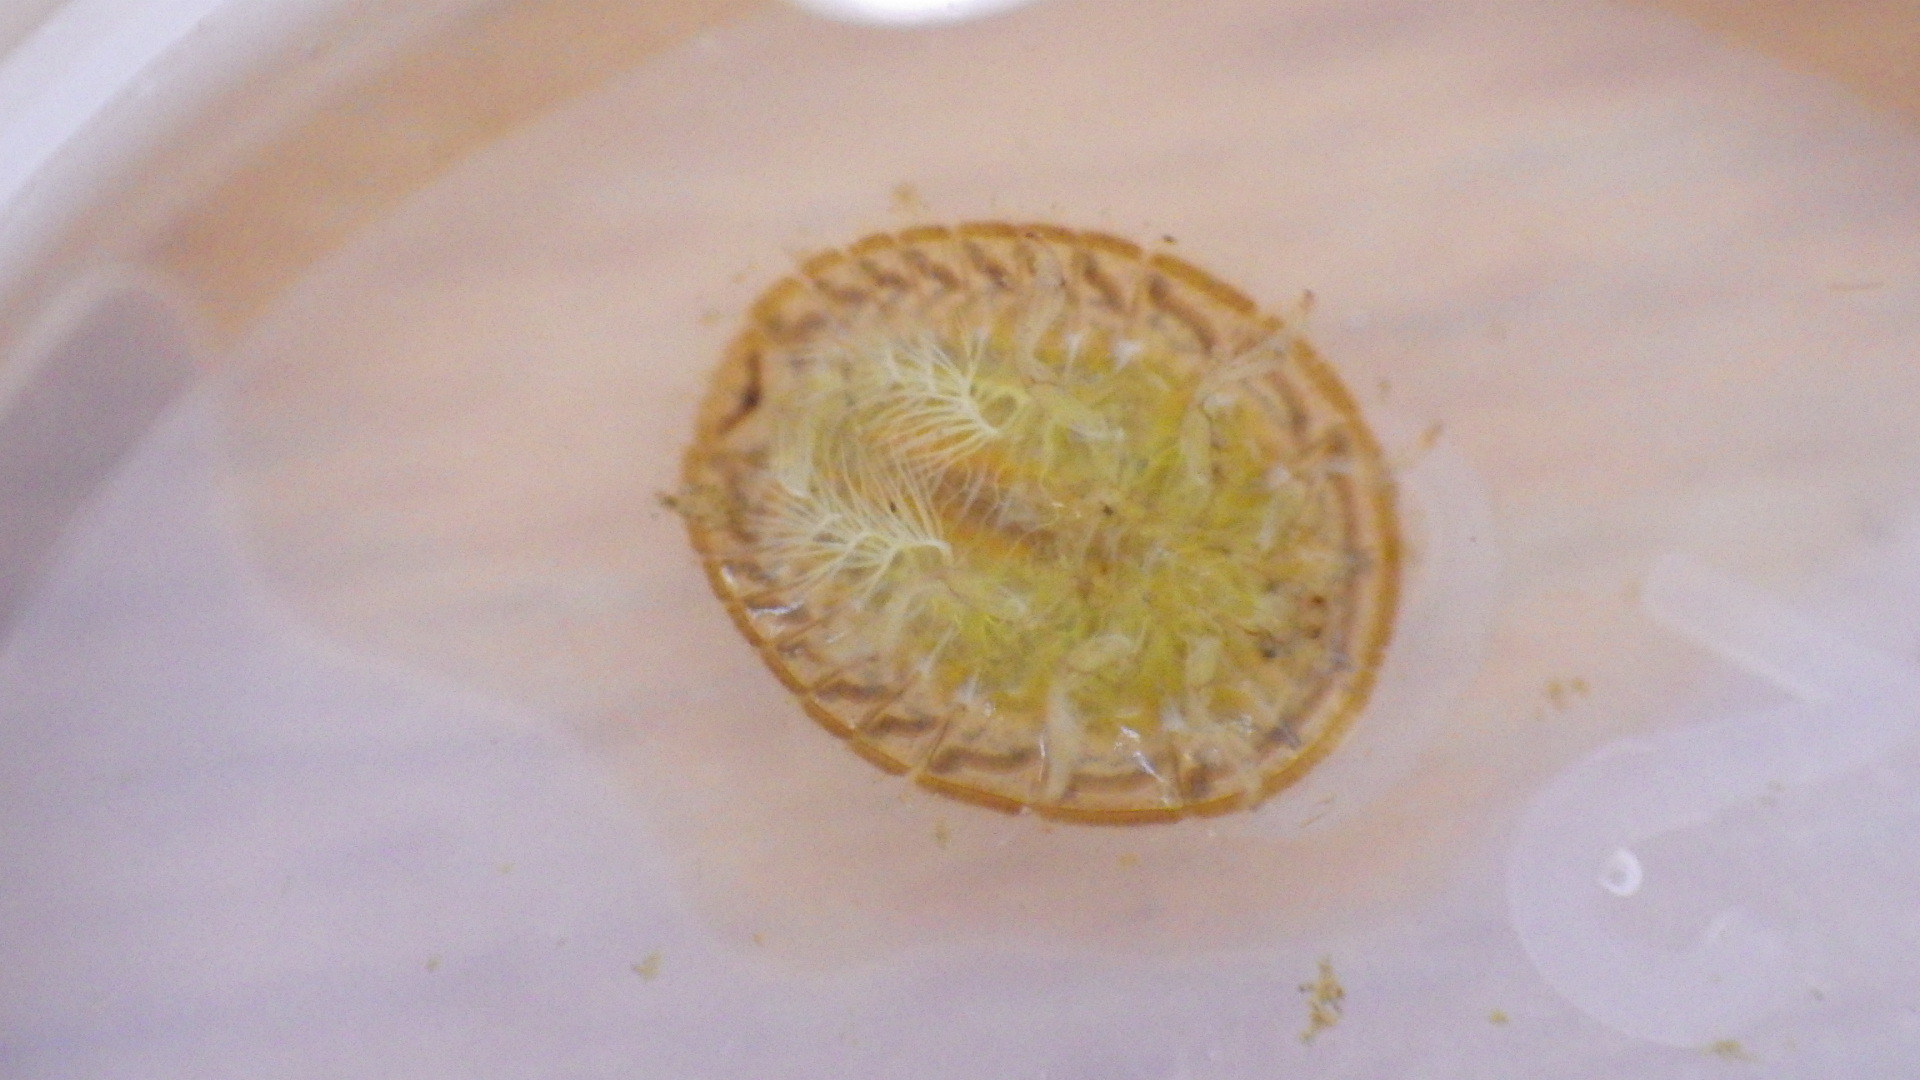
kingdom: Animalia
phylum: Arthropoda
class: Insecta
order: Coleoptera
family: Psephenidae
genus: Psephenus
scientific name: Psephenus herricki
